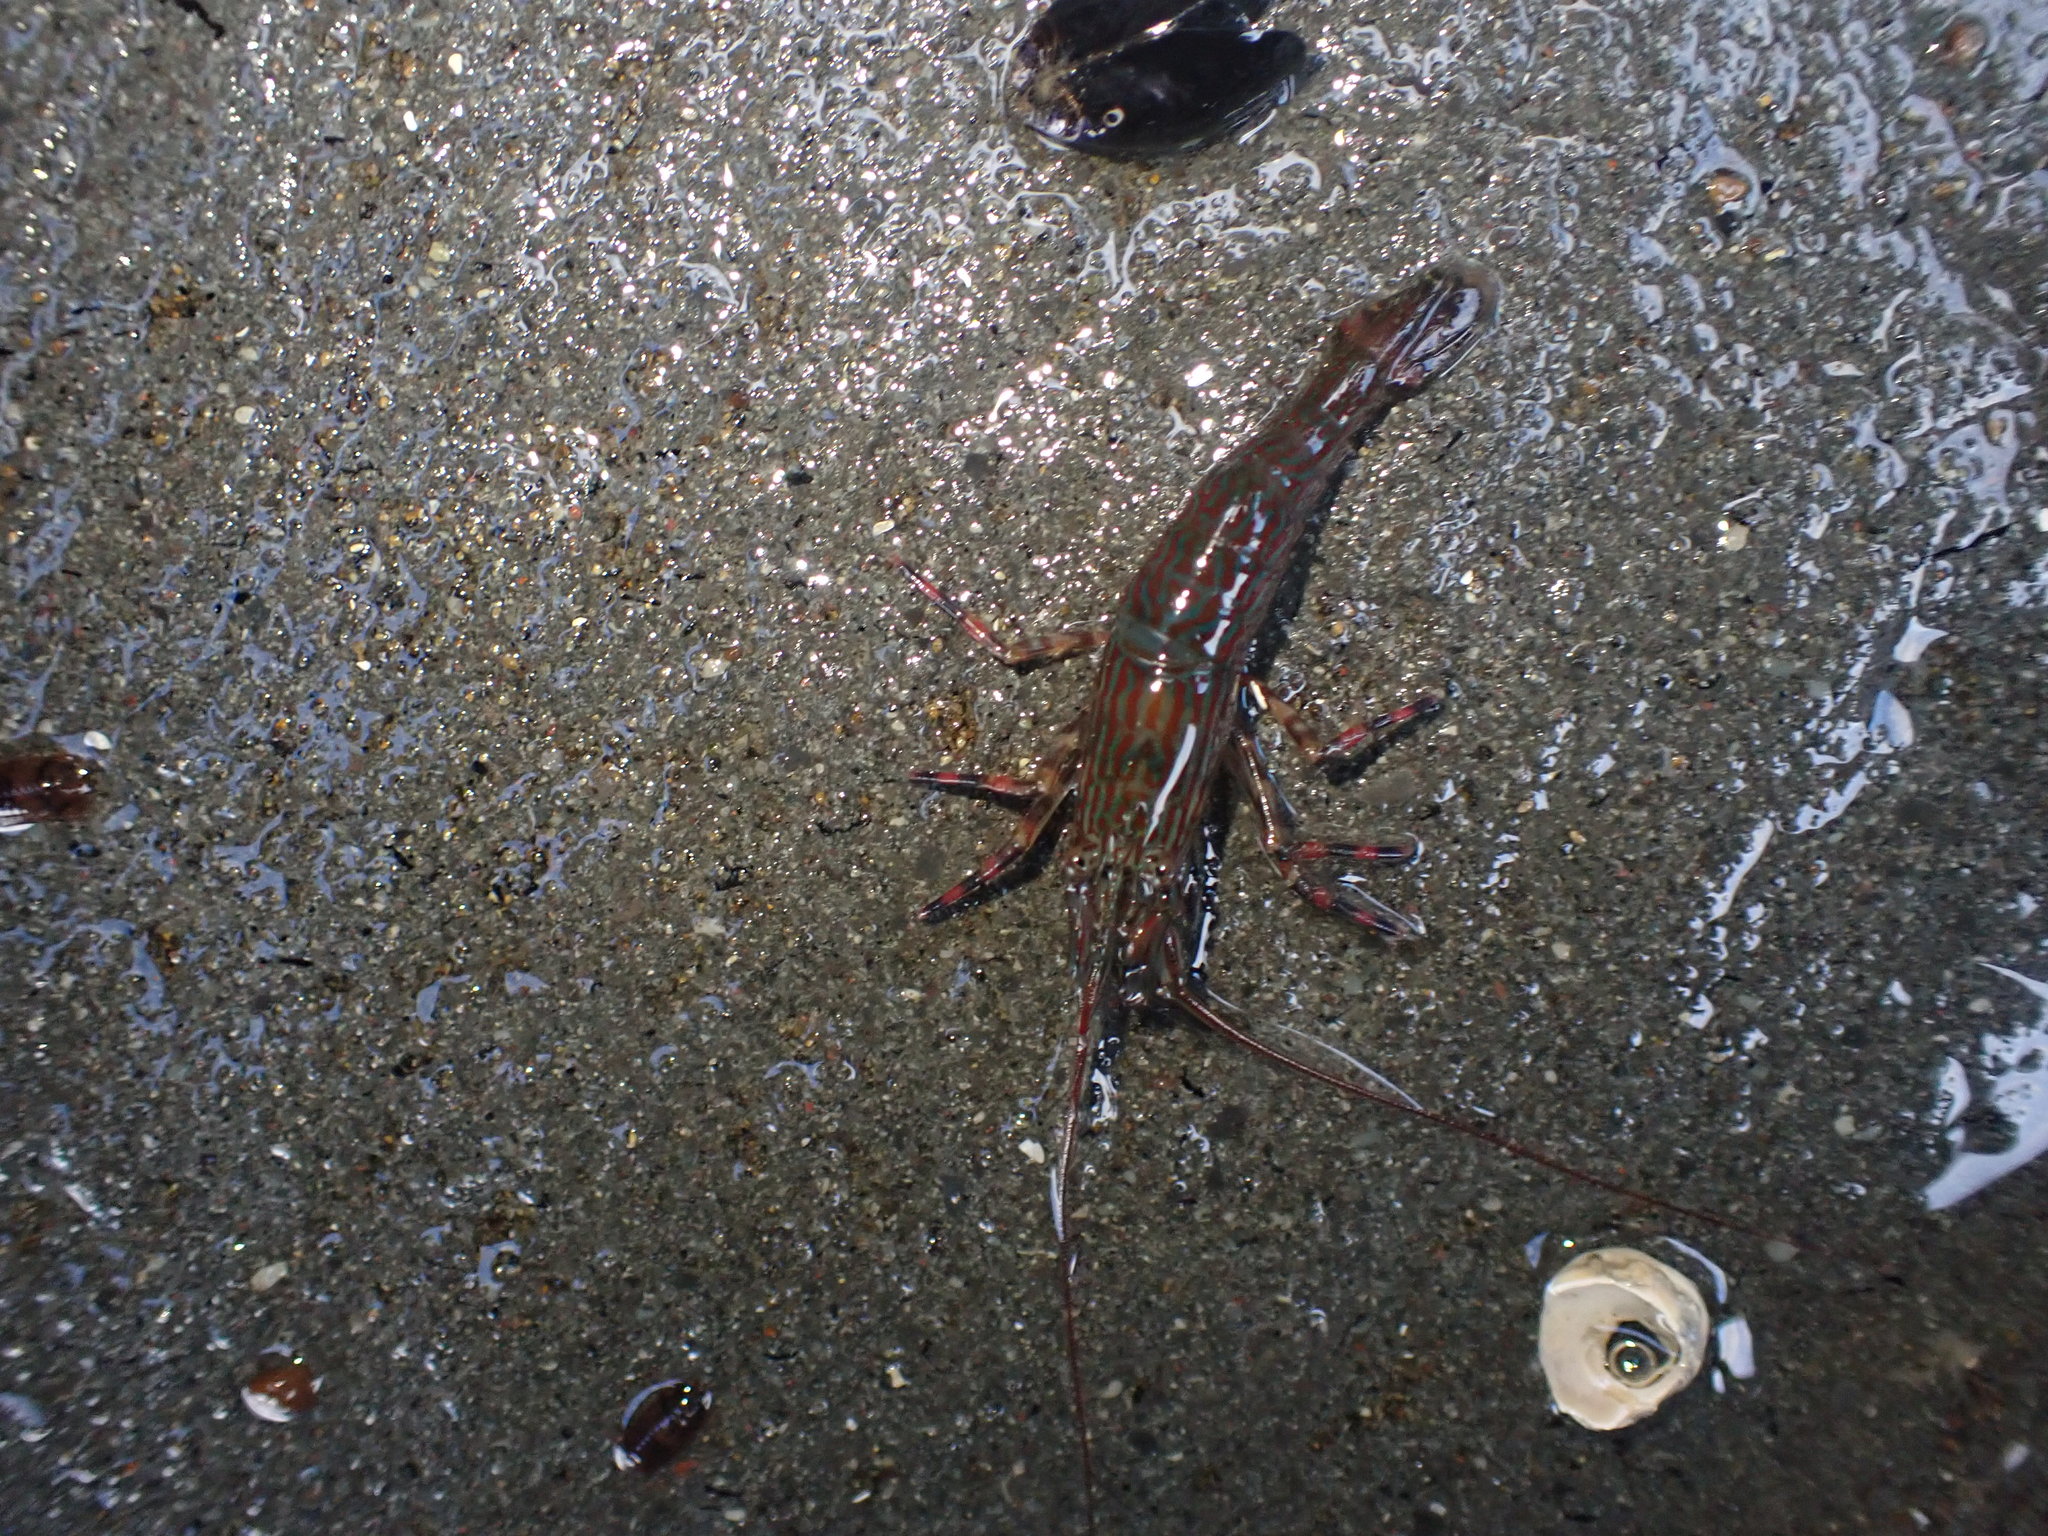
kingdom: Animalia
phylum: Arthropoda
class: Malacostraca
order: Decapoda
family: Hippolytidae
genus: Alope
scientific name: Alope spinifrons
